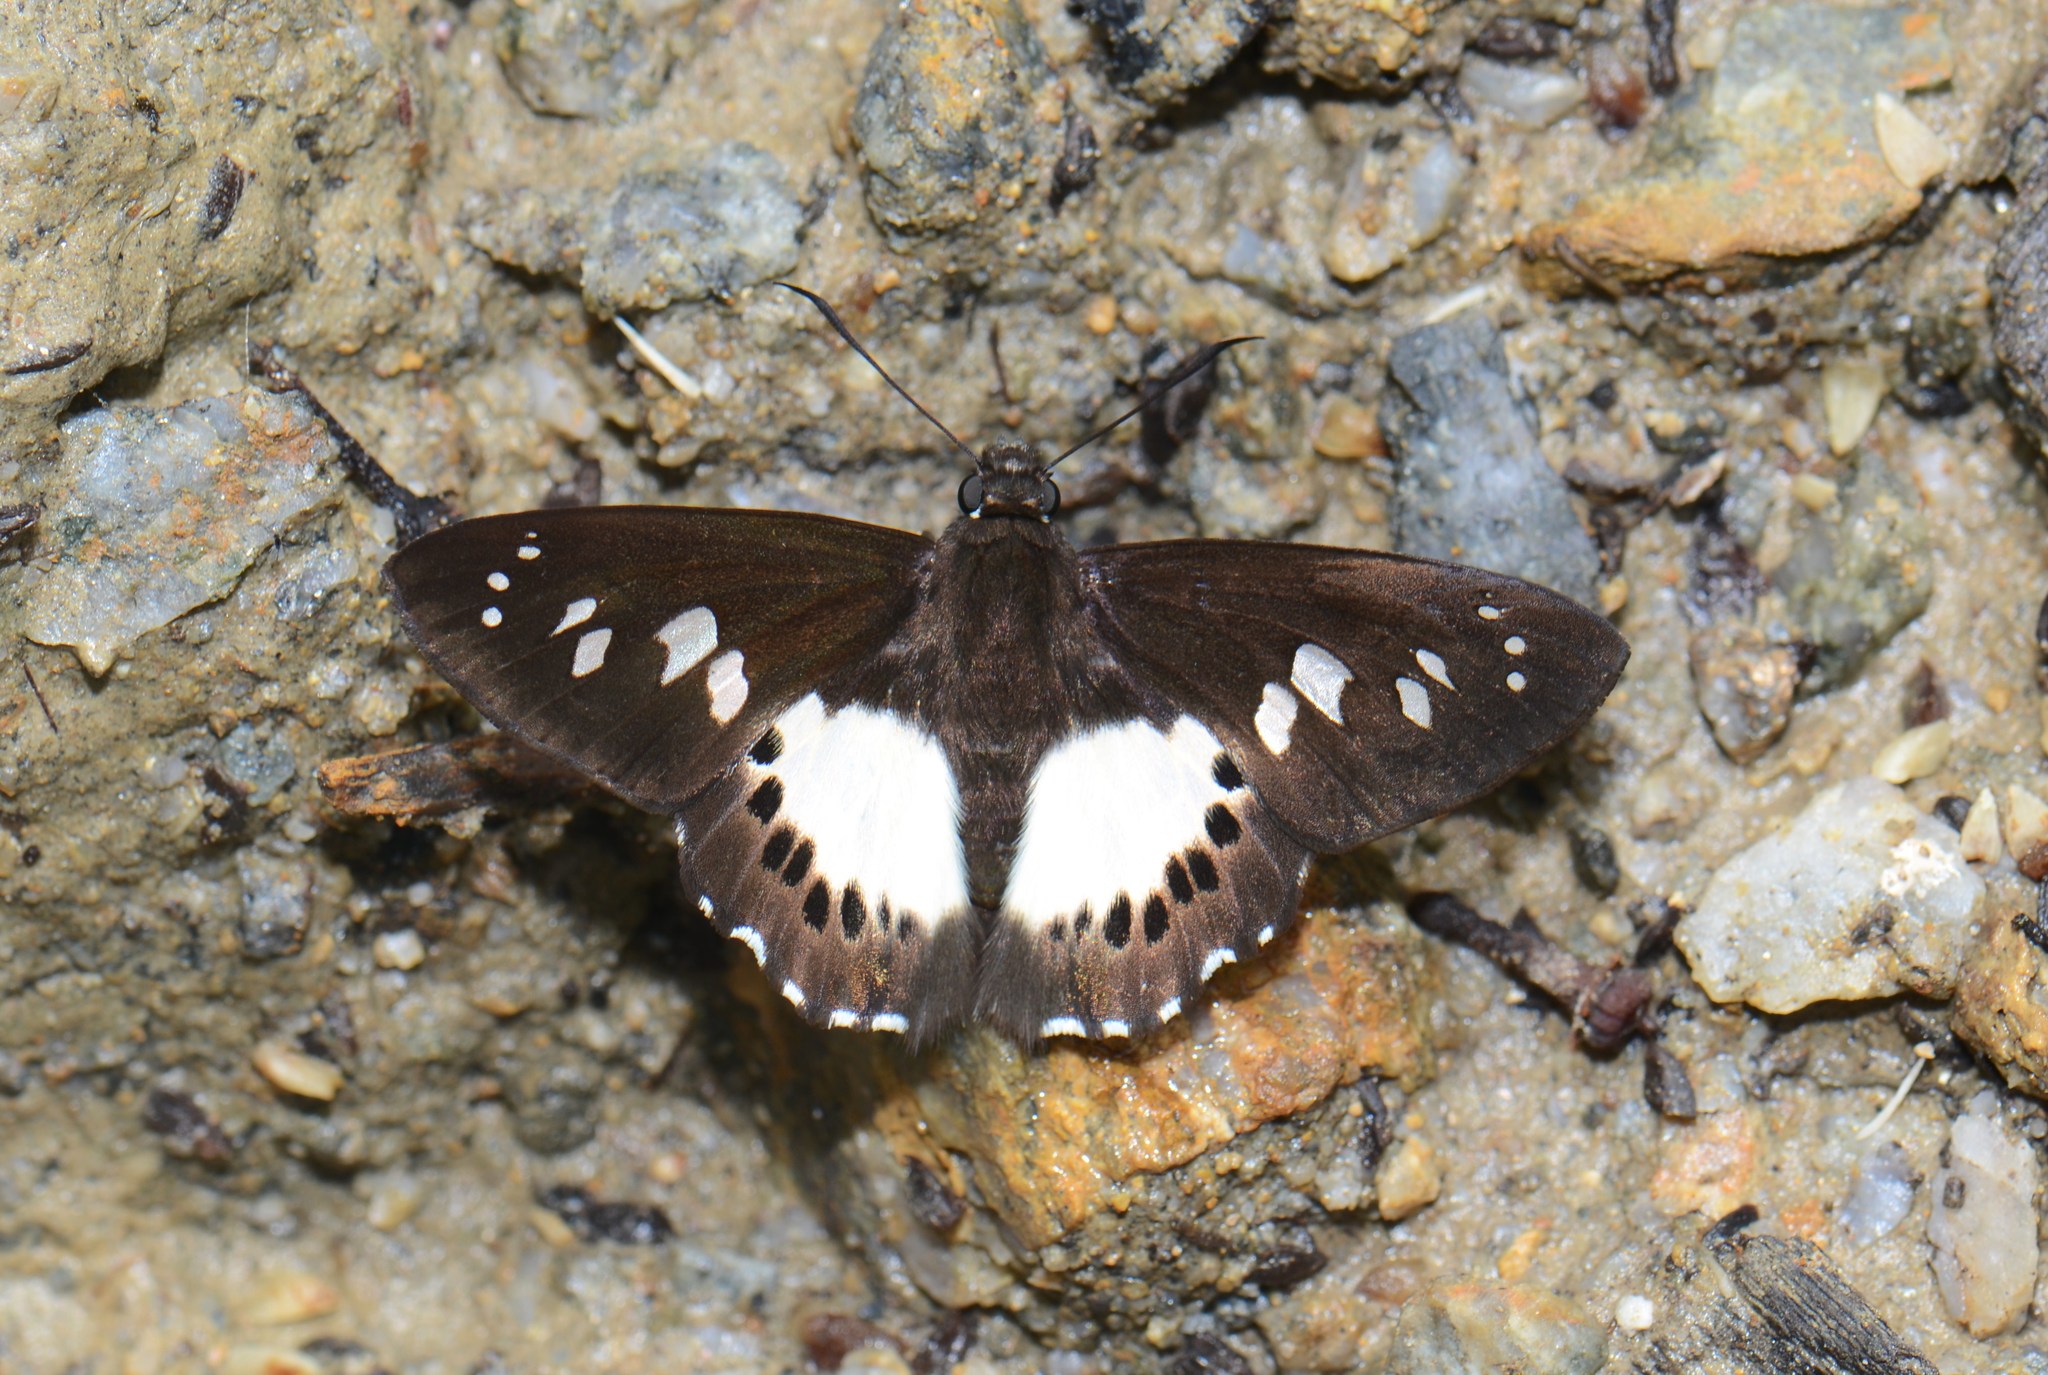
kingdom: Animalia
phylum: Arthropoda
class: Insecta
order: Lepidoptera
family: Hesperiidae
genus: Seseria
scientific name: Seseria affinis
